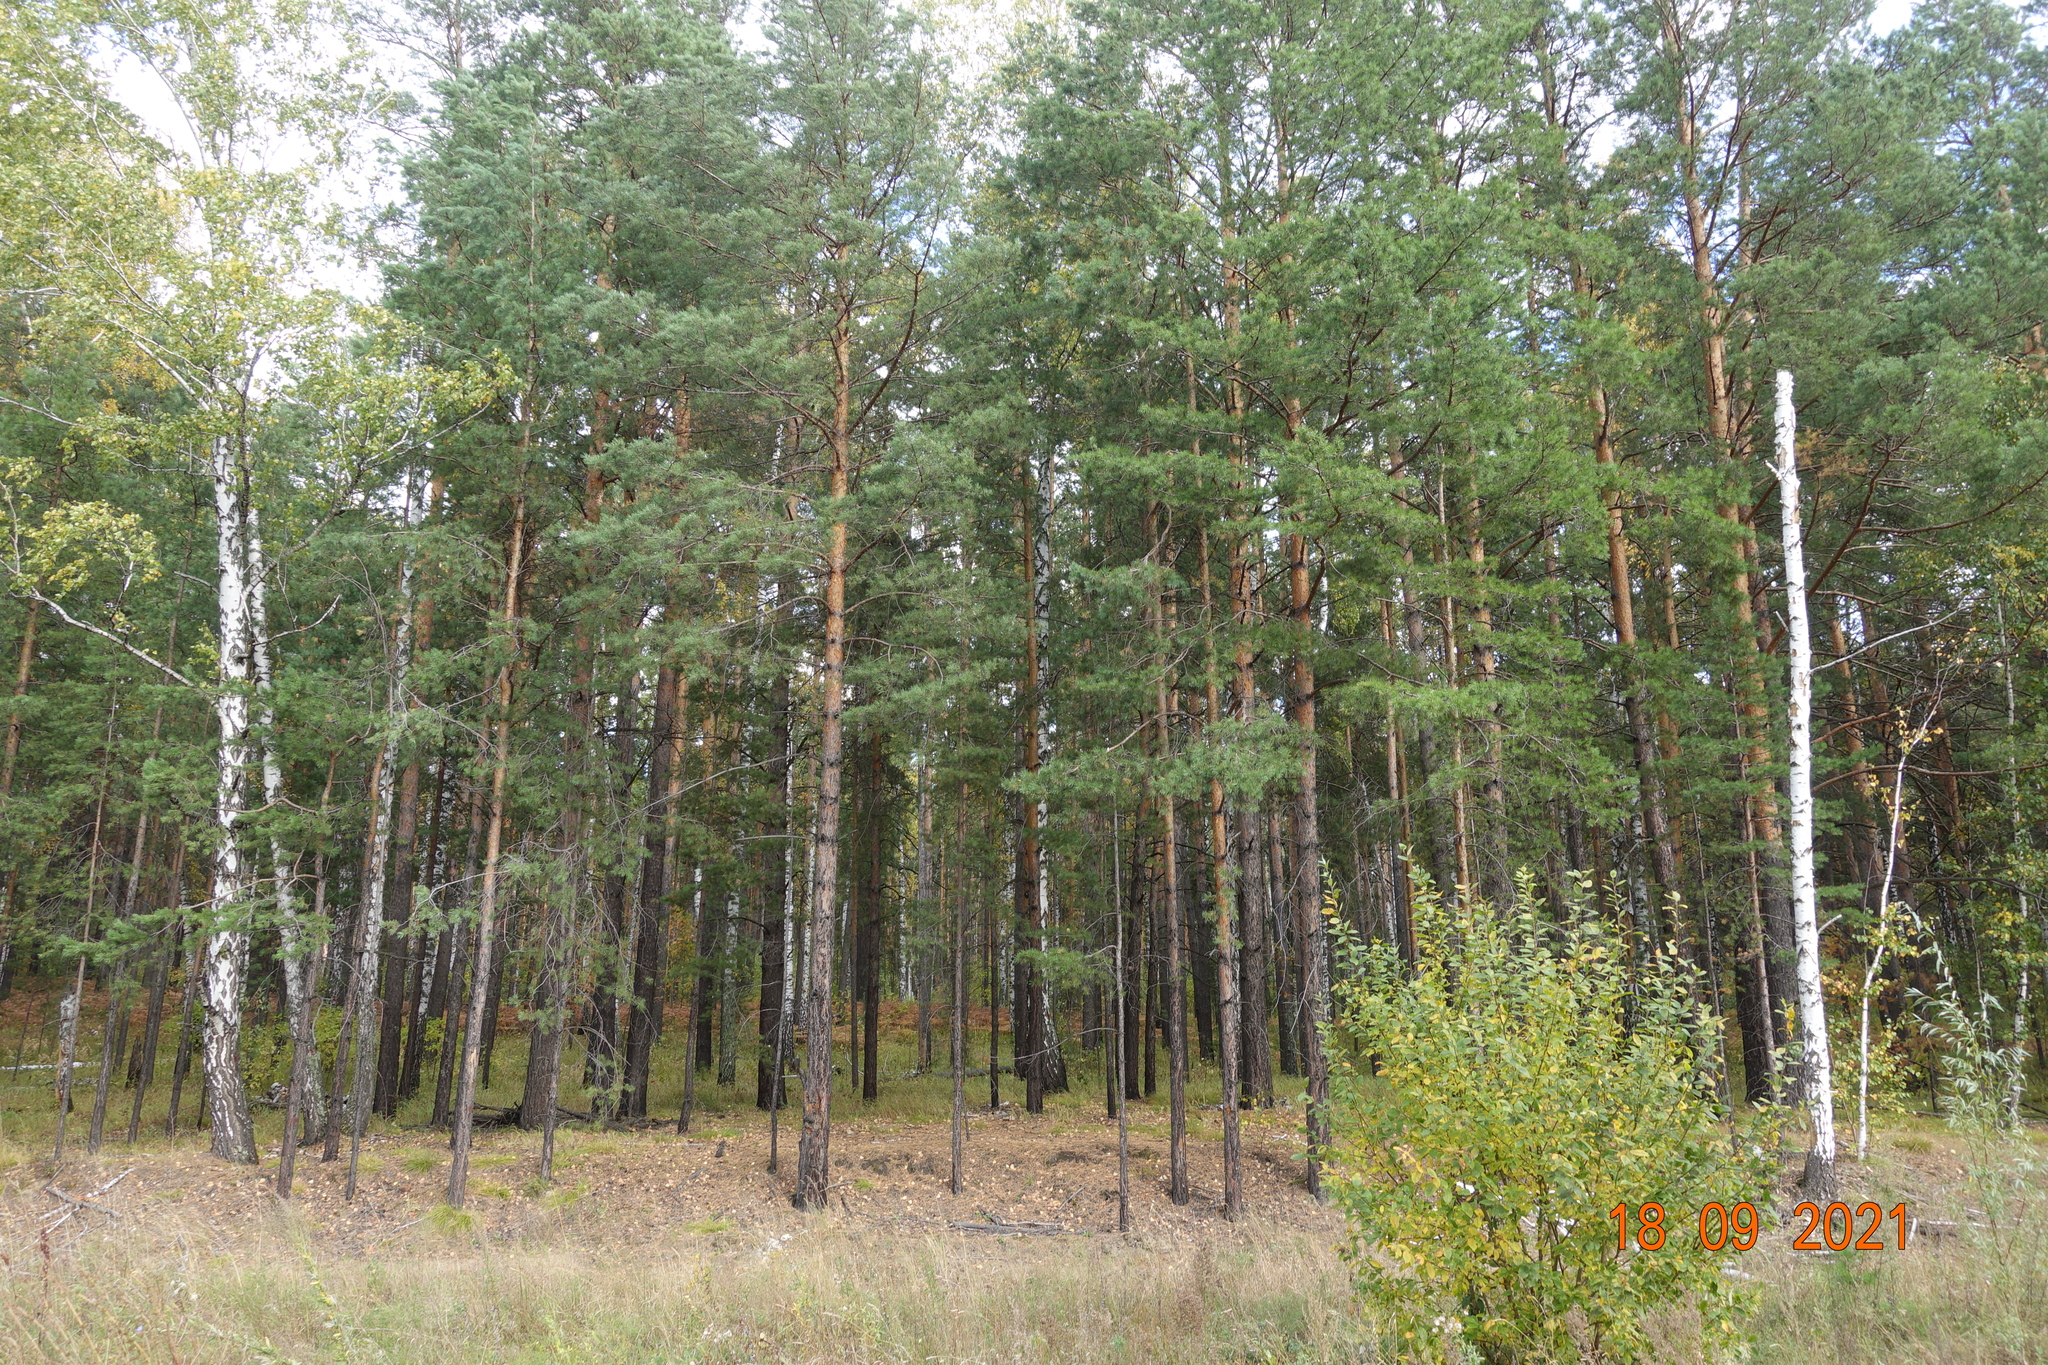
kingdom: Plantae
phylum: Tracheophyta
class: Pinopsida
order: Pinales
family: Pinaceae
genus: Pinus
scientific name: Pinus sylvestris
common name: Scots pine
